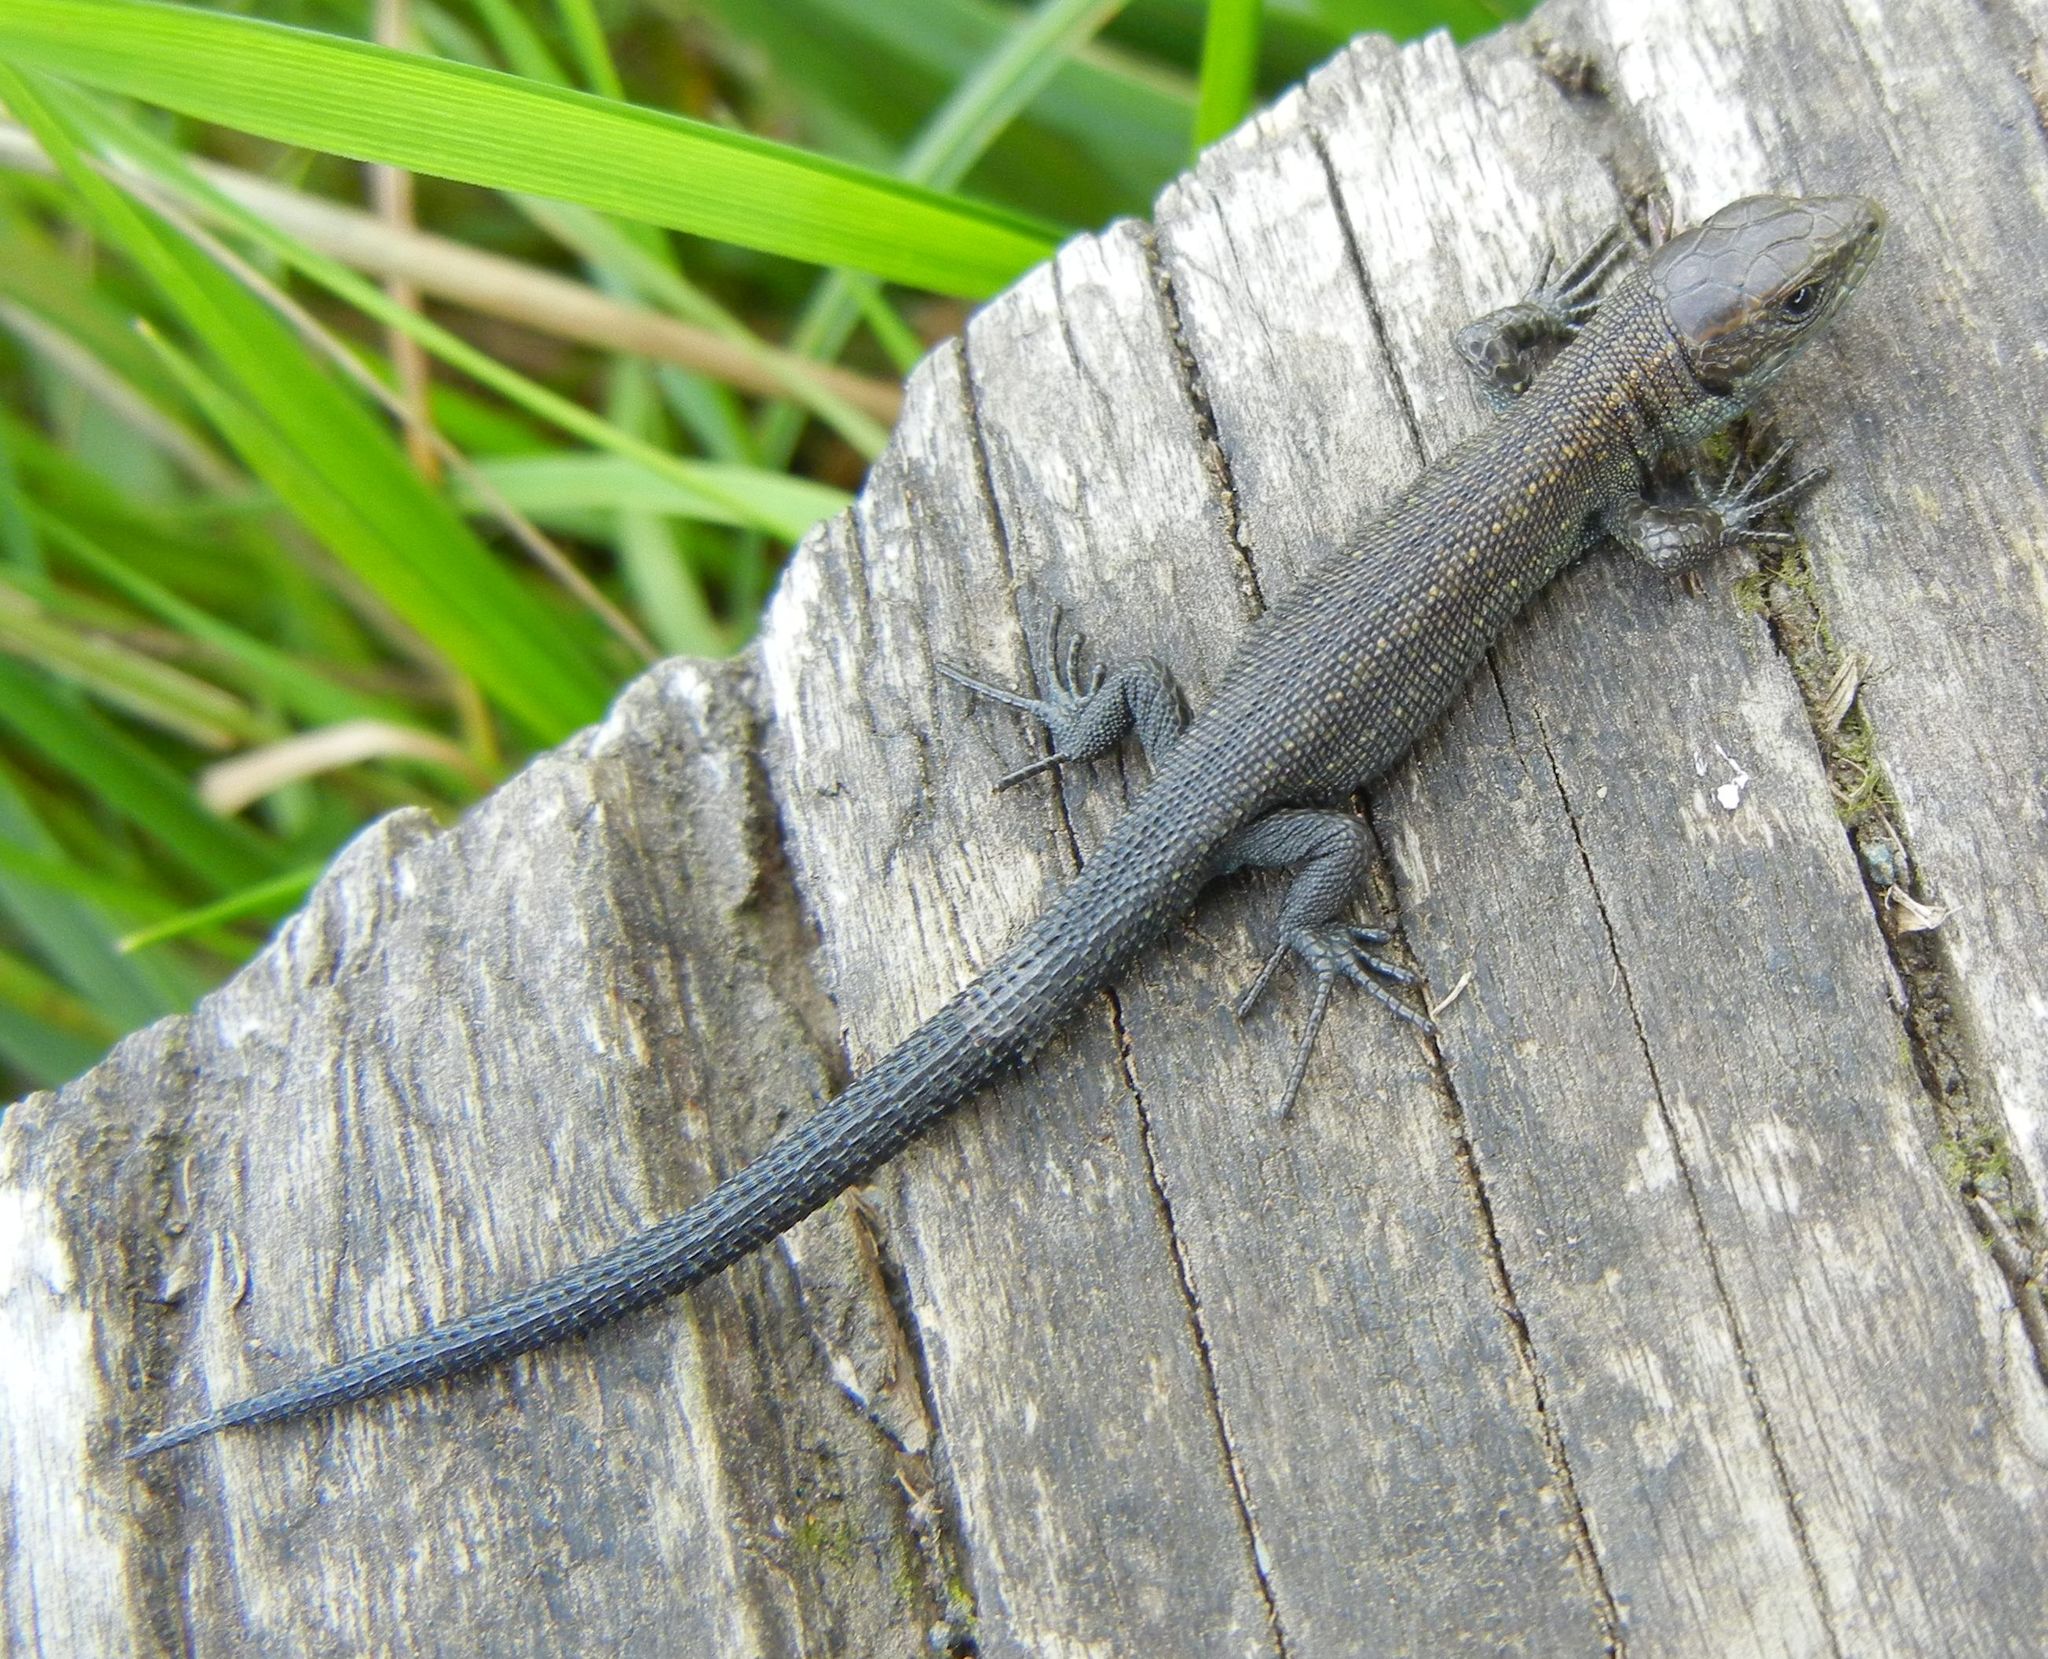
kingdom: Animalia
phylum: Chordata
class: Squamata
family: Lacertidae
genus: Zootoca
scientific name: Zootoca vivipara
